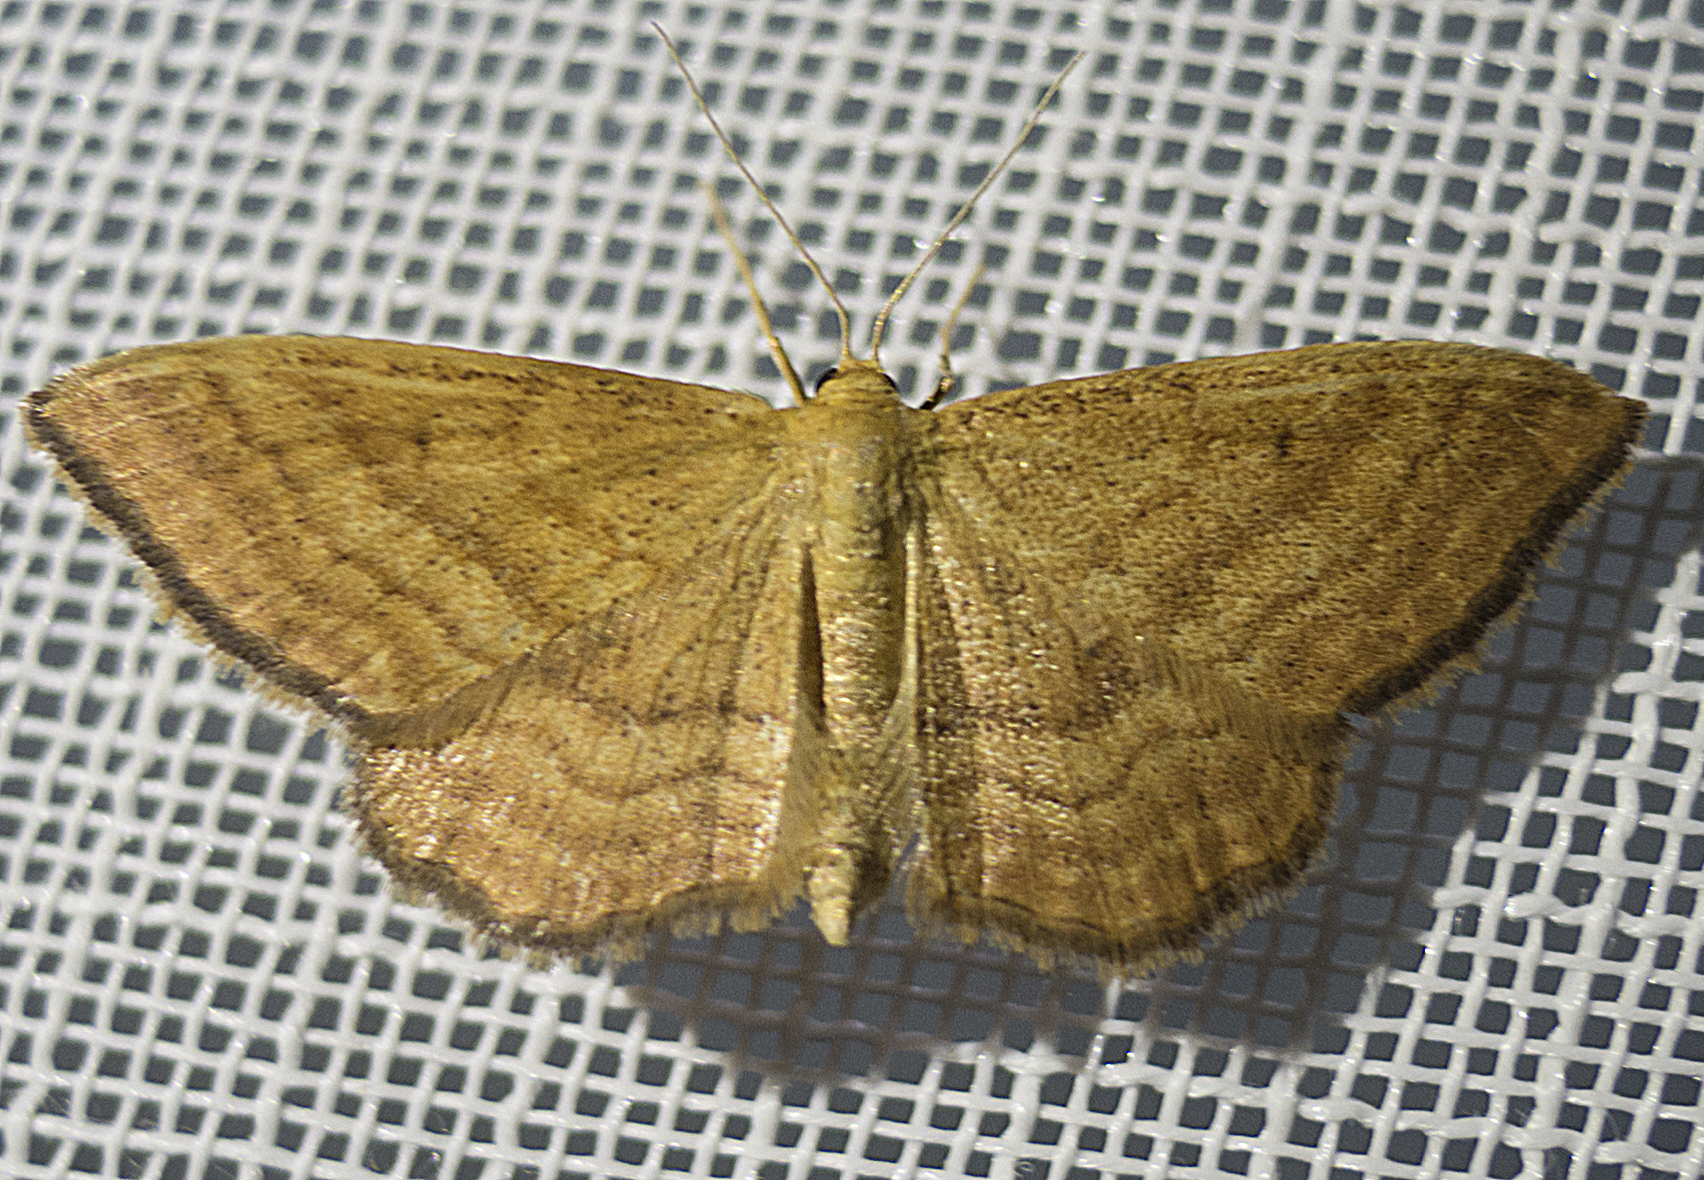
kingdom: Animalia
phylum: Arthropoda
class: Insecta
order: Lepidoptera
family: Geometridae
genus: Idaea
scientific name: Idaea ochrata
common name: Bright wave
